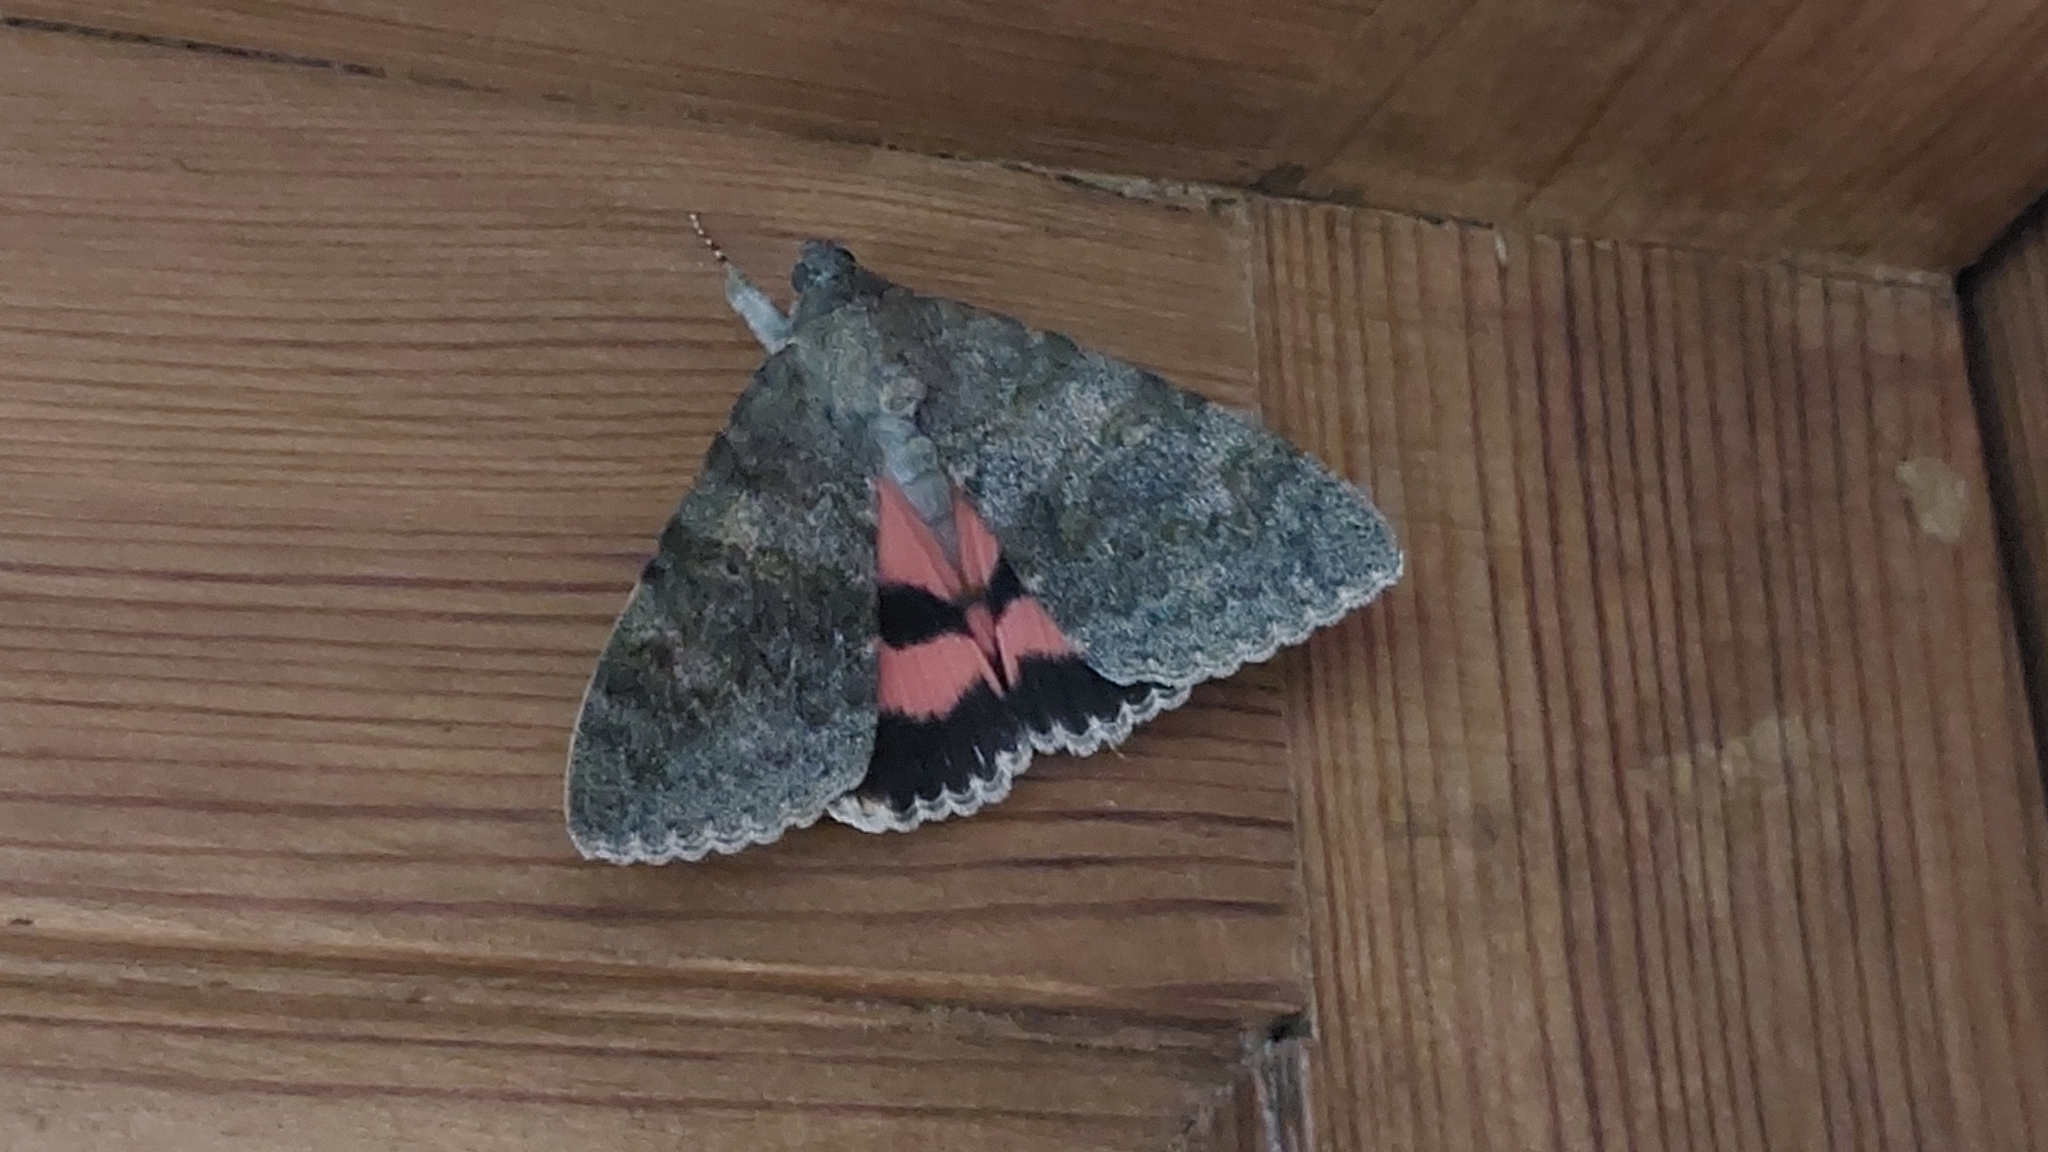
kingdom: Animalia
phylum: Arthropoda
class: Insecta
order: Lepidoptera
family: Erebidae
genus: Catocala
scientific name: Catocala elocata
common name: French red underwing
